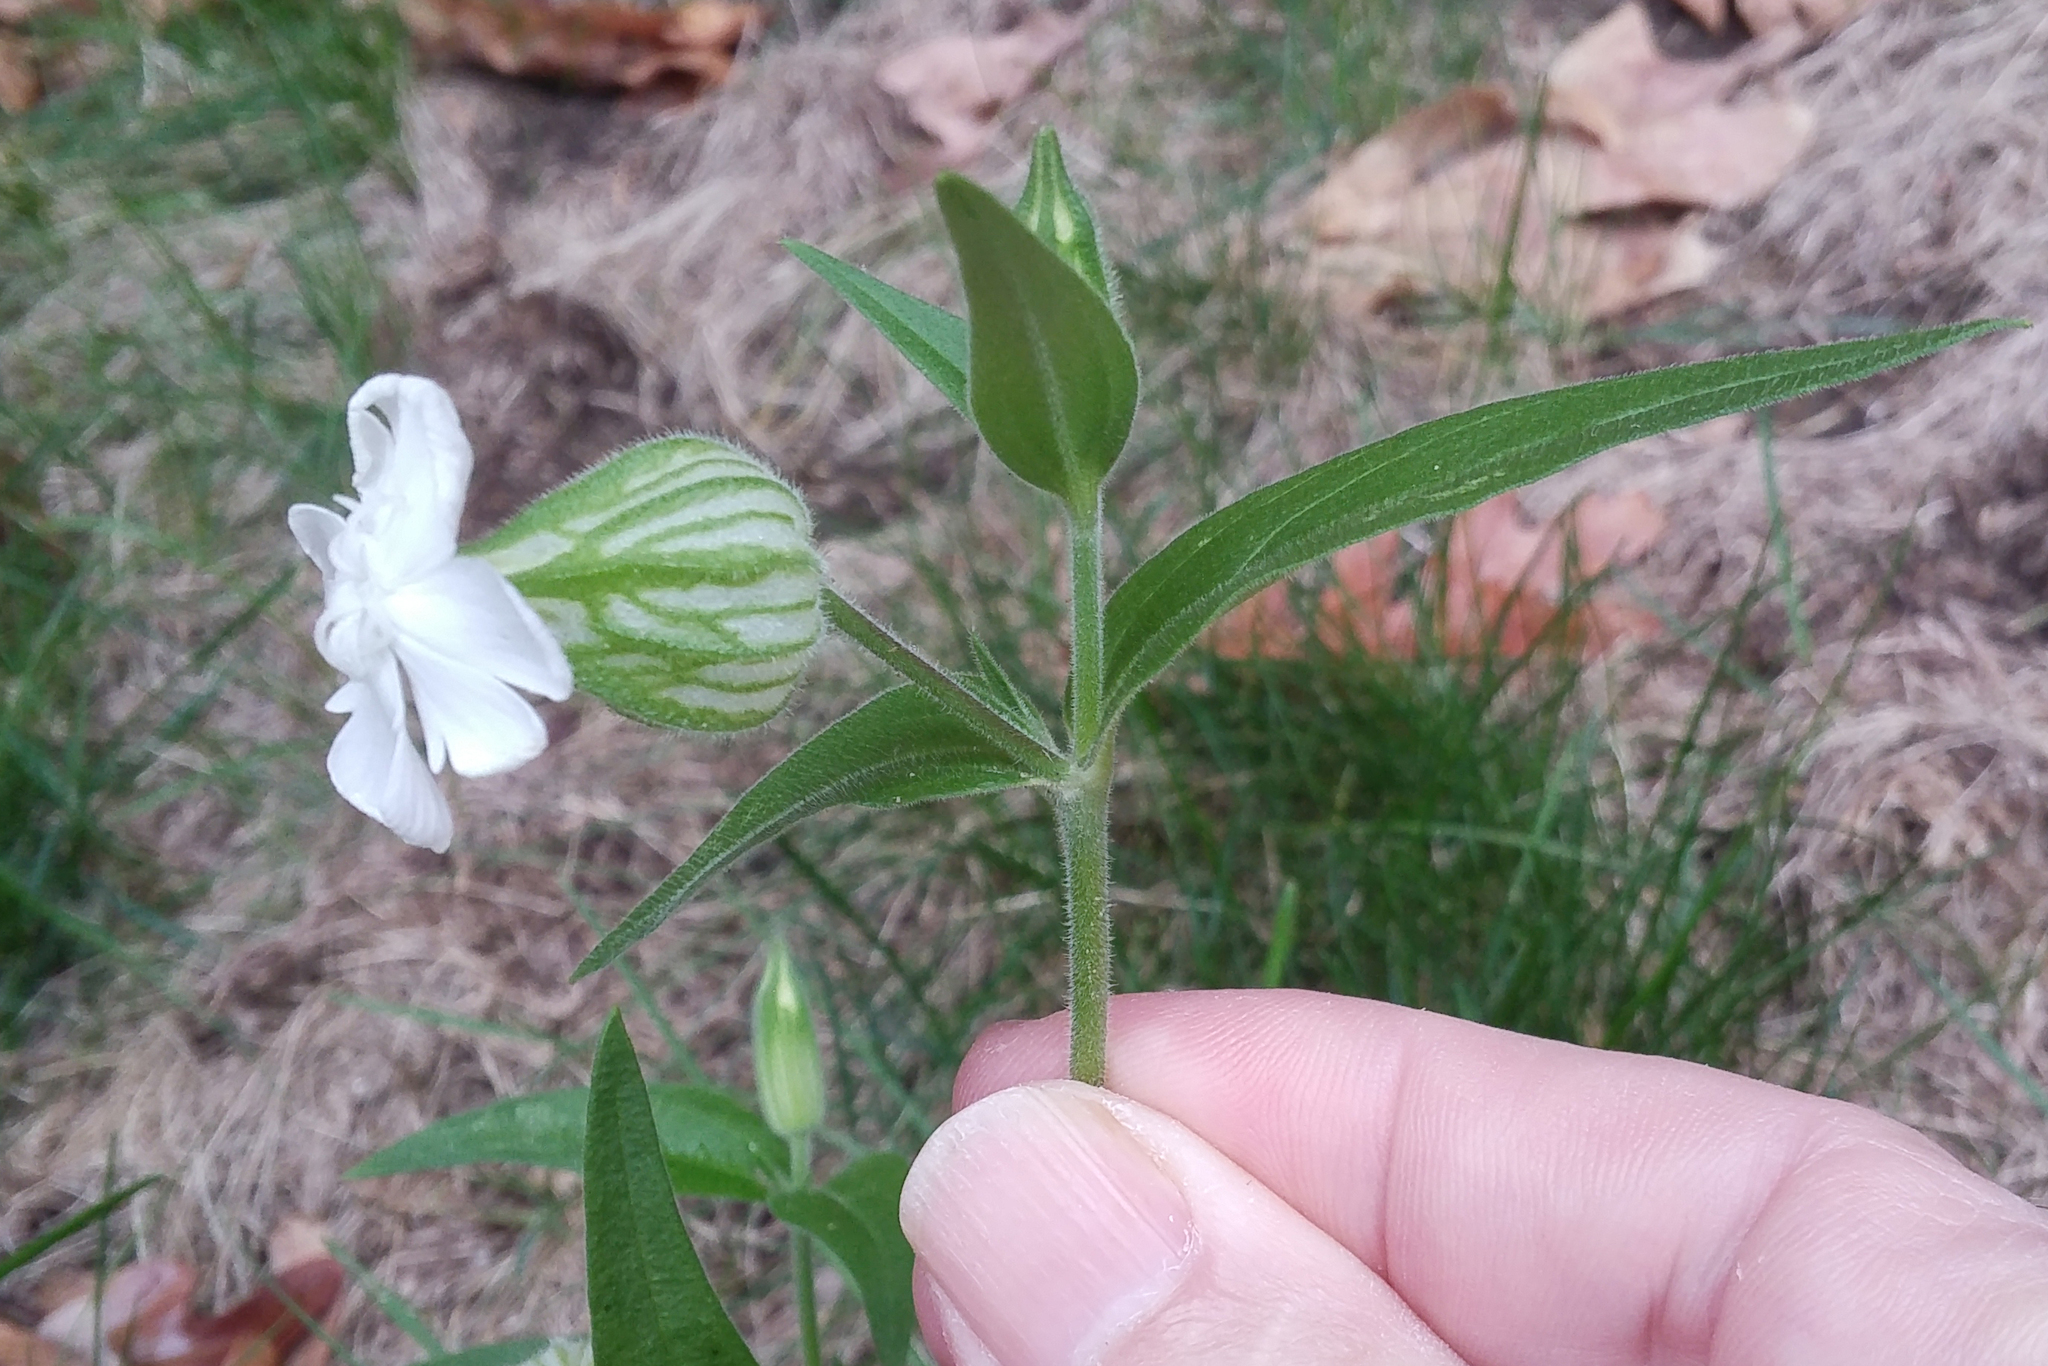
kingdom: Plantae
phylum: Tracheophyta
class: Magnoliopsida
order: Caryophyllales
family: Caryophyllaceae
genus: Silene
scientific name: Silene latifolia
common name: White campion
